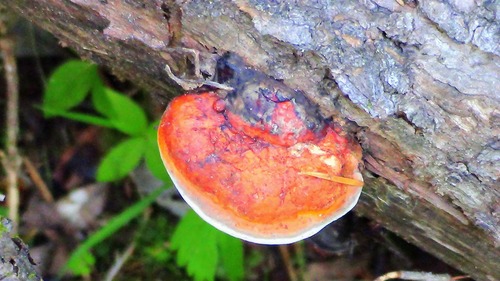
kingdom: Fungi
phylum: Basidiomycota
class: Agaricomycetes
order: Polyporales
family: Fomitopsidaceae
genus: Fomitopsis
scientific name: Fomitopsis pinicola
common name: Red-belted bracket
